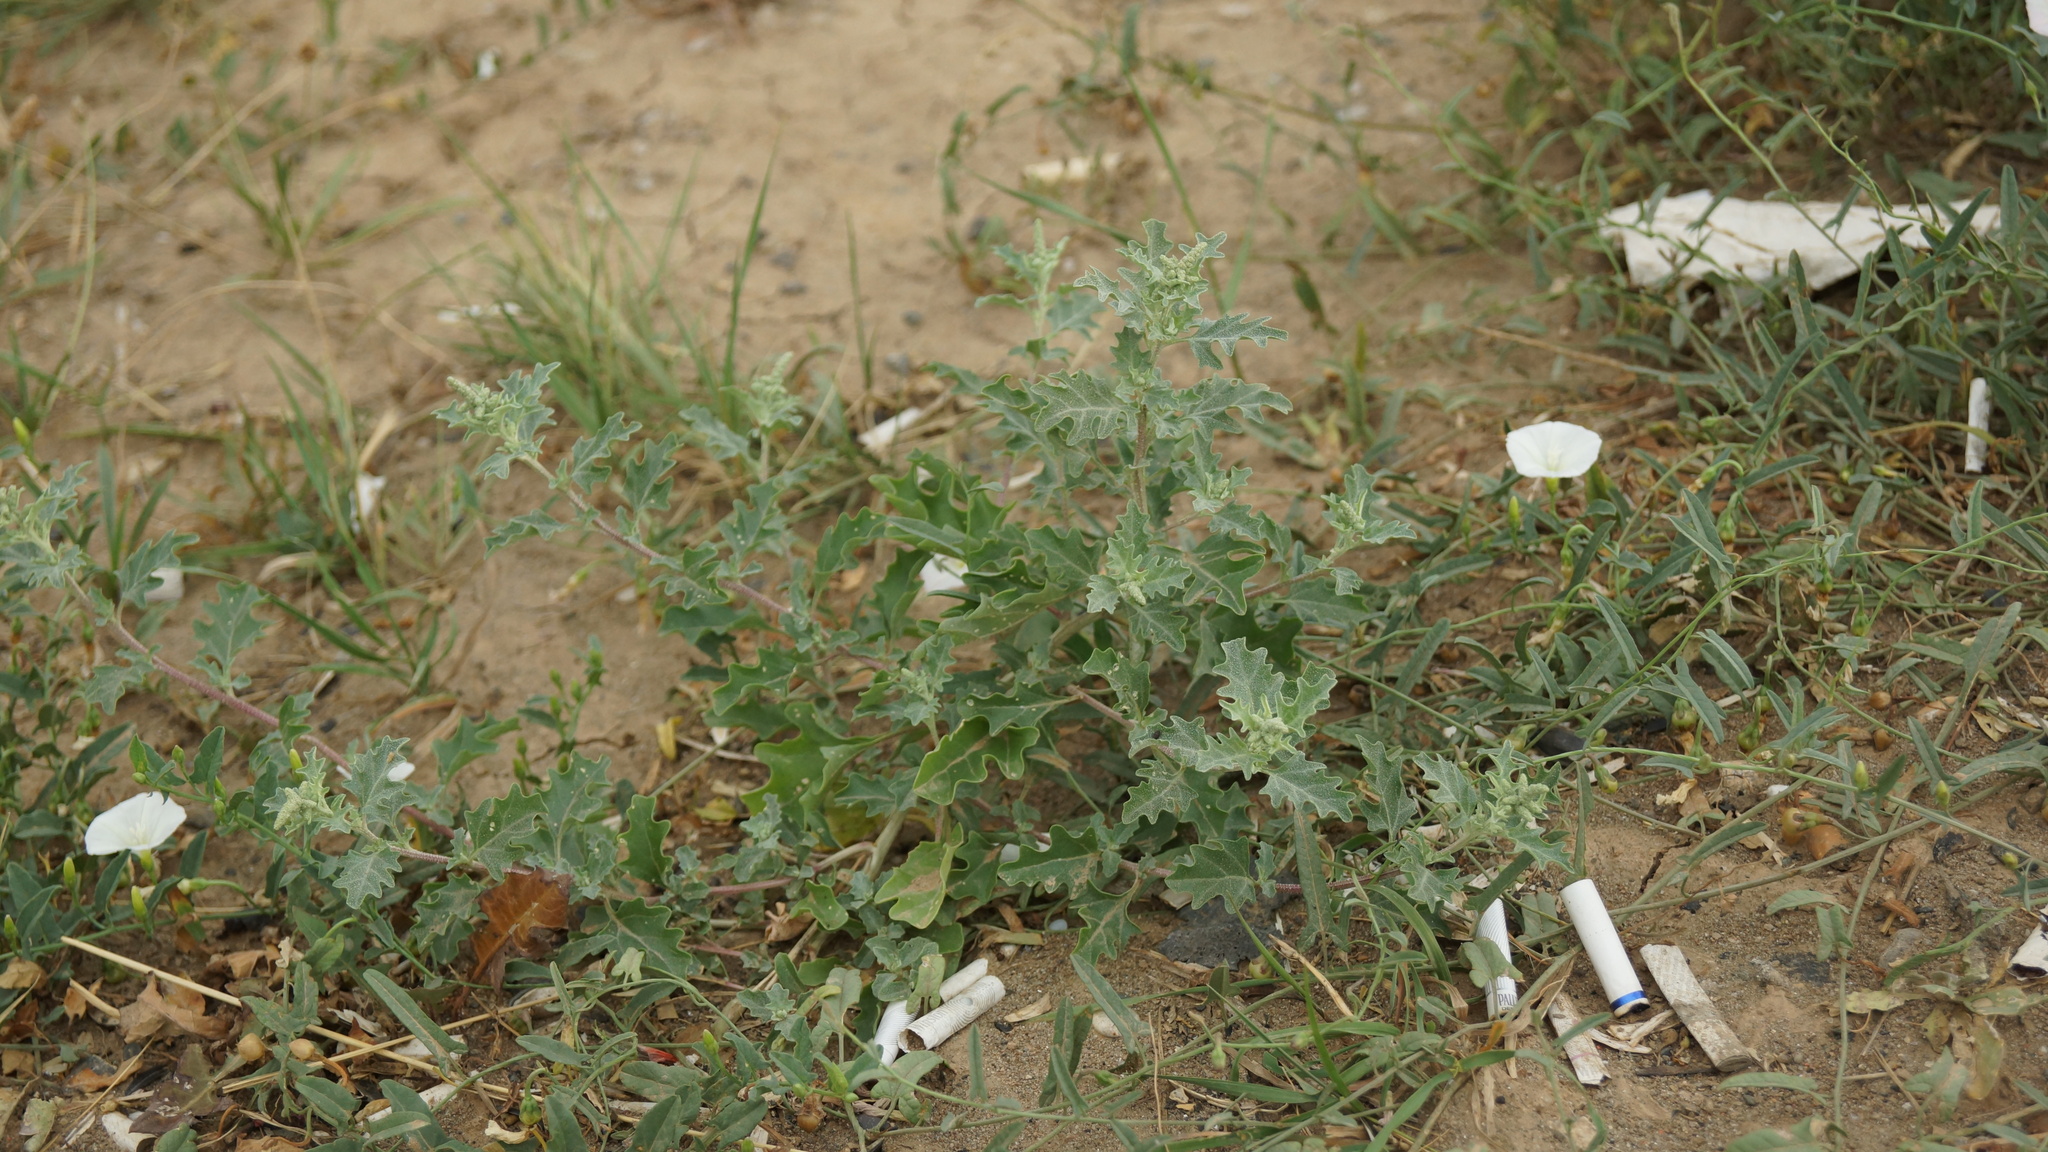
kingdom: Plantae
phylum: Tracheophyta
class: Magnoliopsida
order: Caryophyllales
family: Amaranthaceae
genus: Atriplex
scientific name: Atriplex tatarica
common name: Tatarian orache
